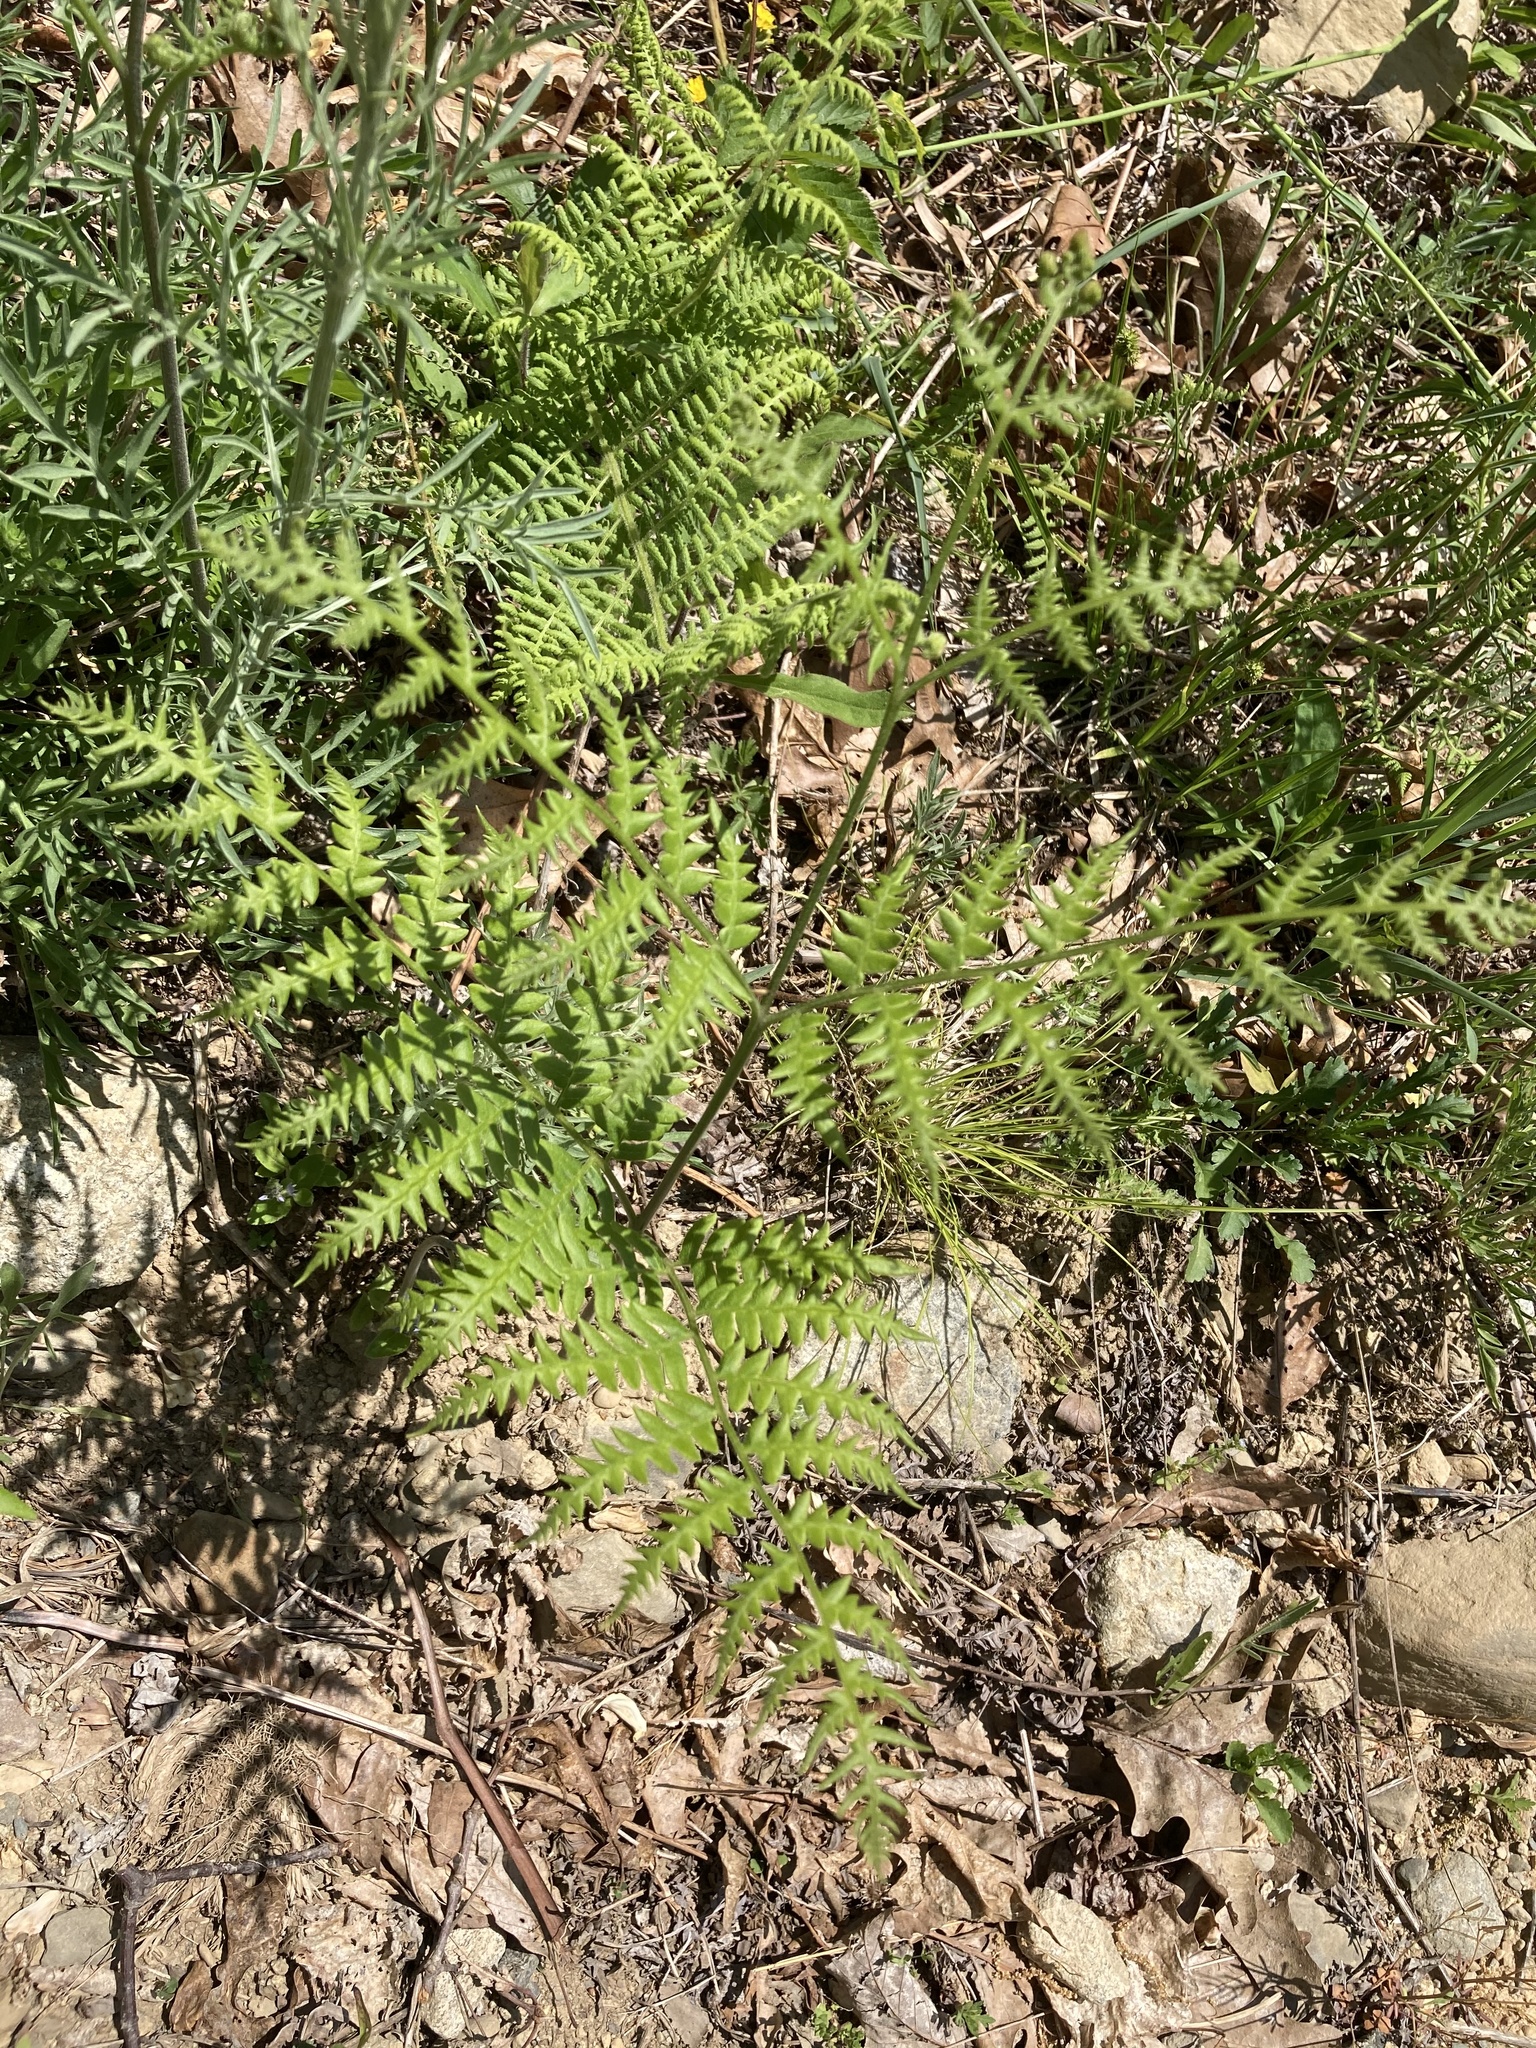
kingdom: Plantae
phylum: Tracheophyta
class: Polypodiopsida
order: Polypodiales
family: Dennstaedtiaceae
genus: Pteridium
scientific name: Pteridium aquilinum
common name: Bracken
